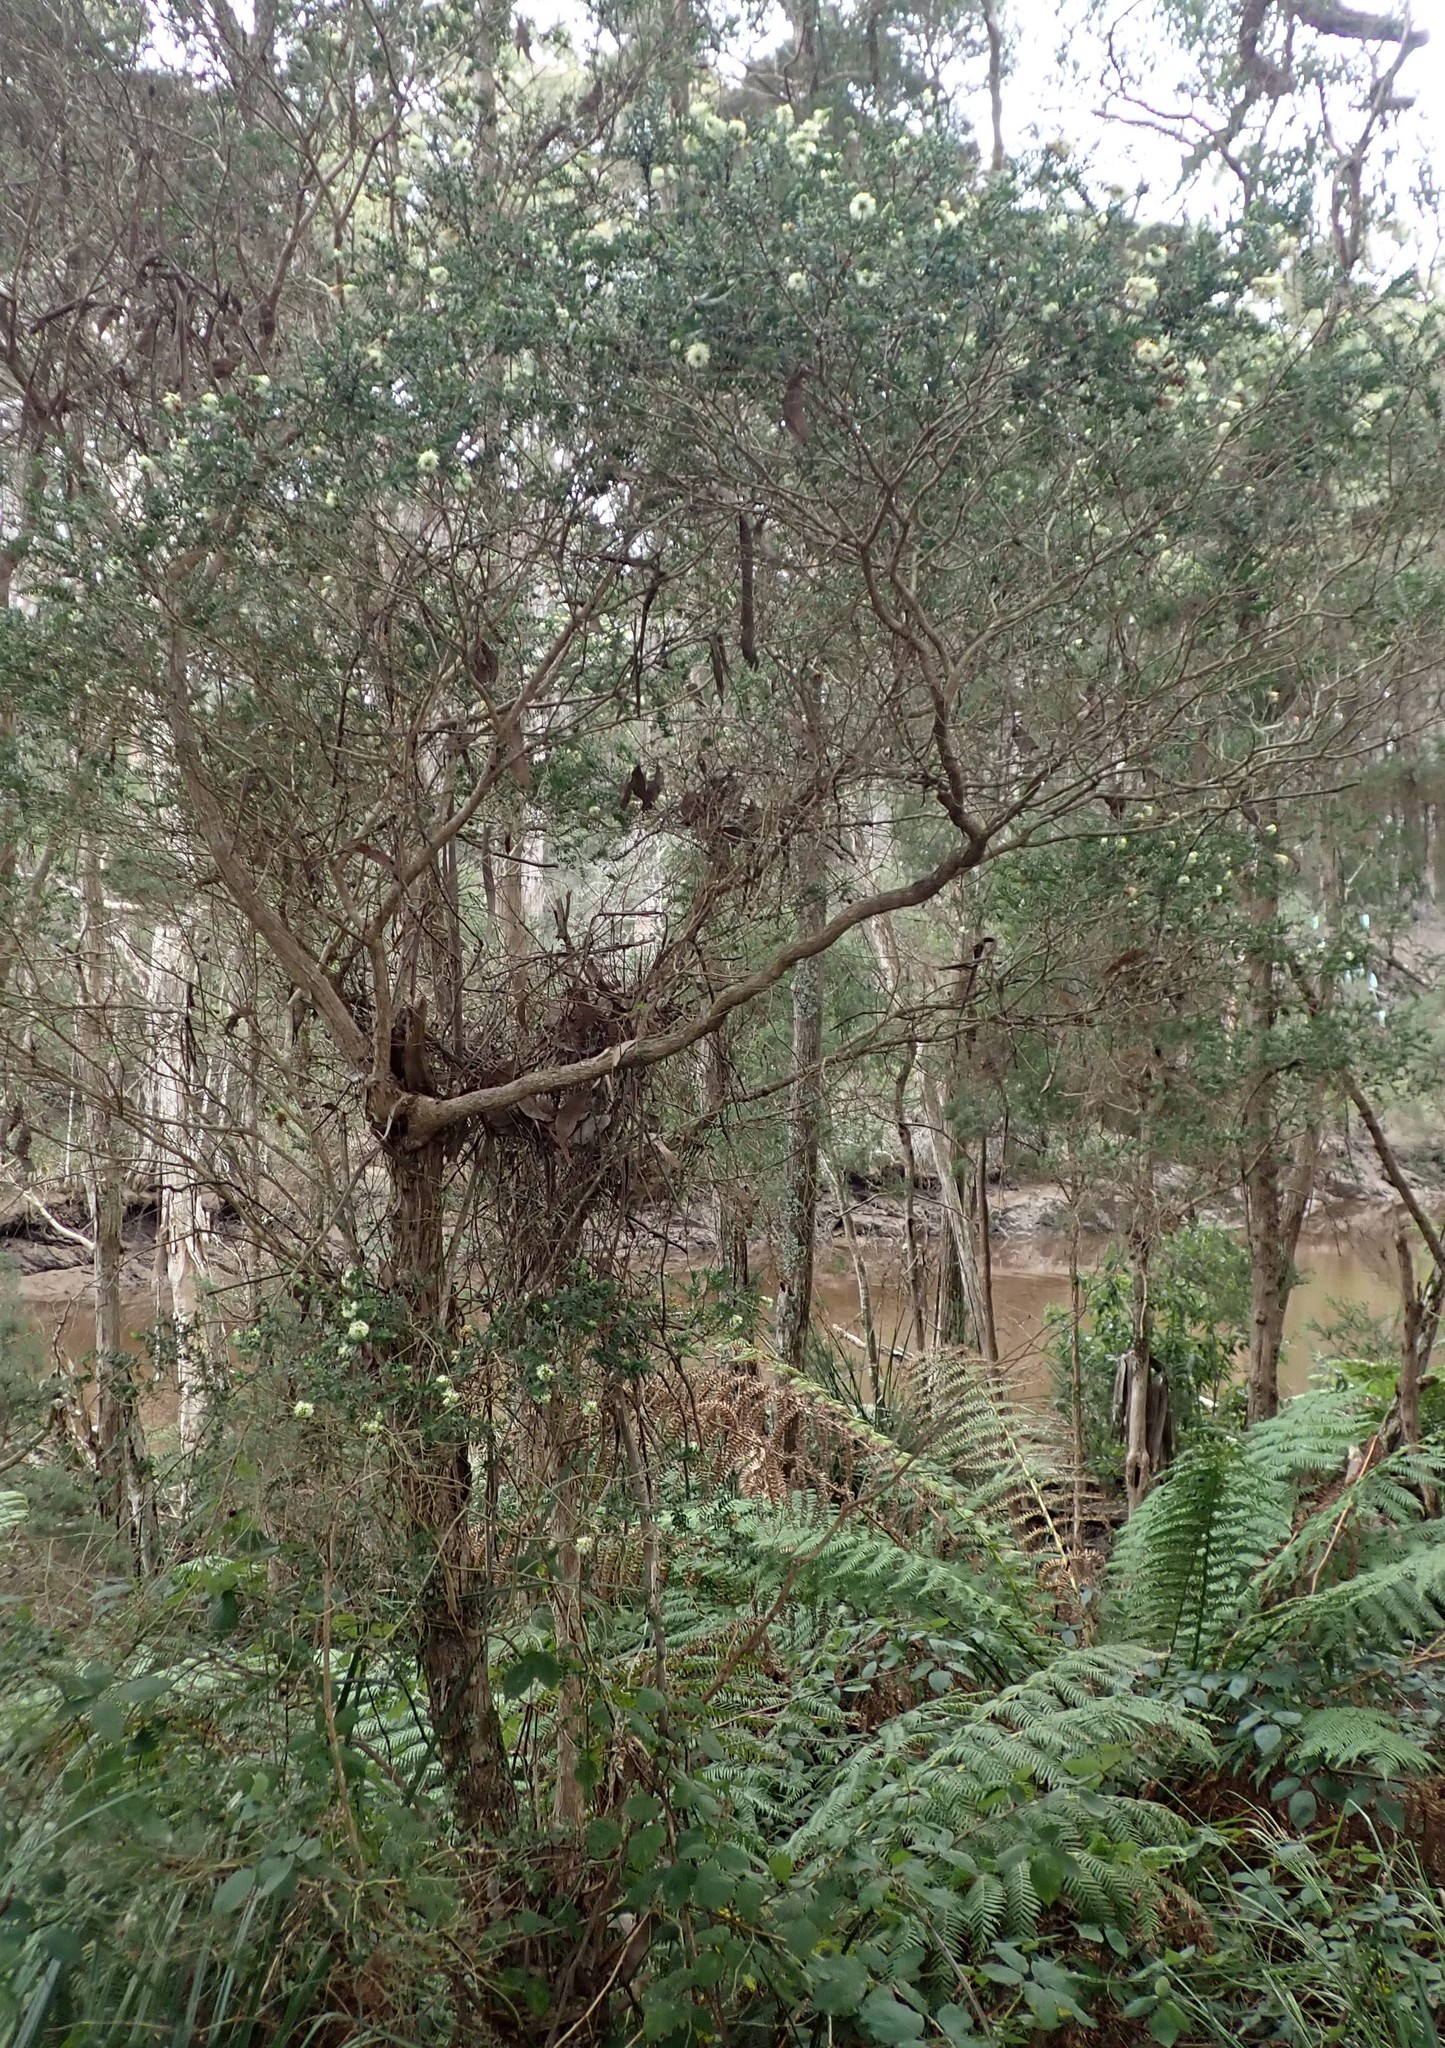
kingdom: Plantae
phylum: Tracheophyta
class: Magnoliopsida
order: Myrtales
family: Myrtaceae
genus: Melaleuca
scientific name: Melaleuca squarrosa
